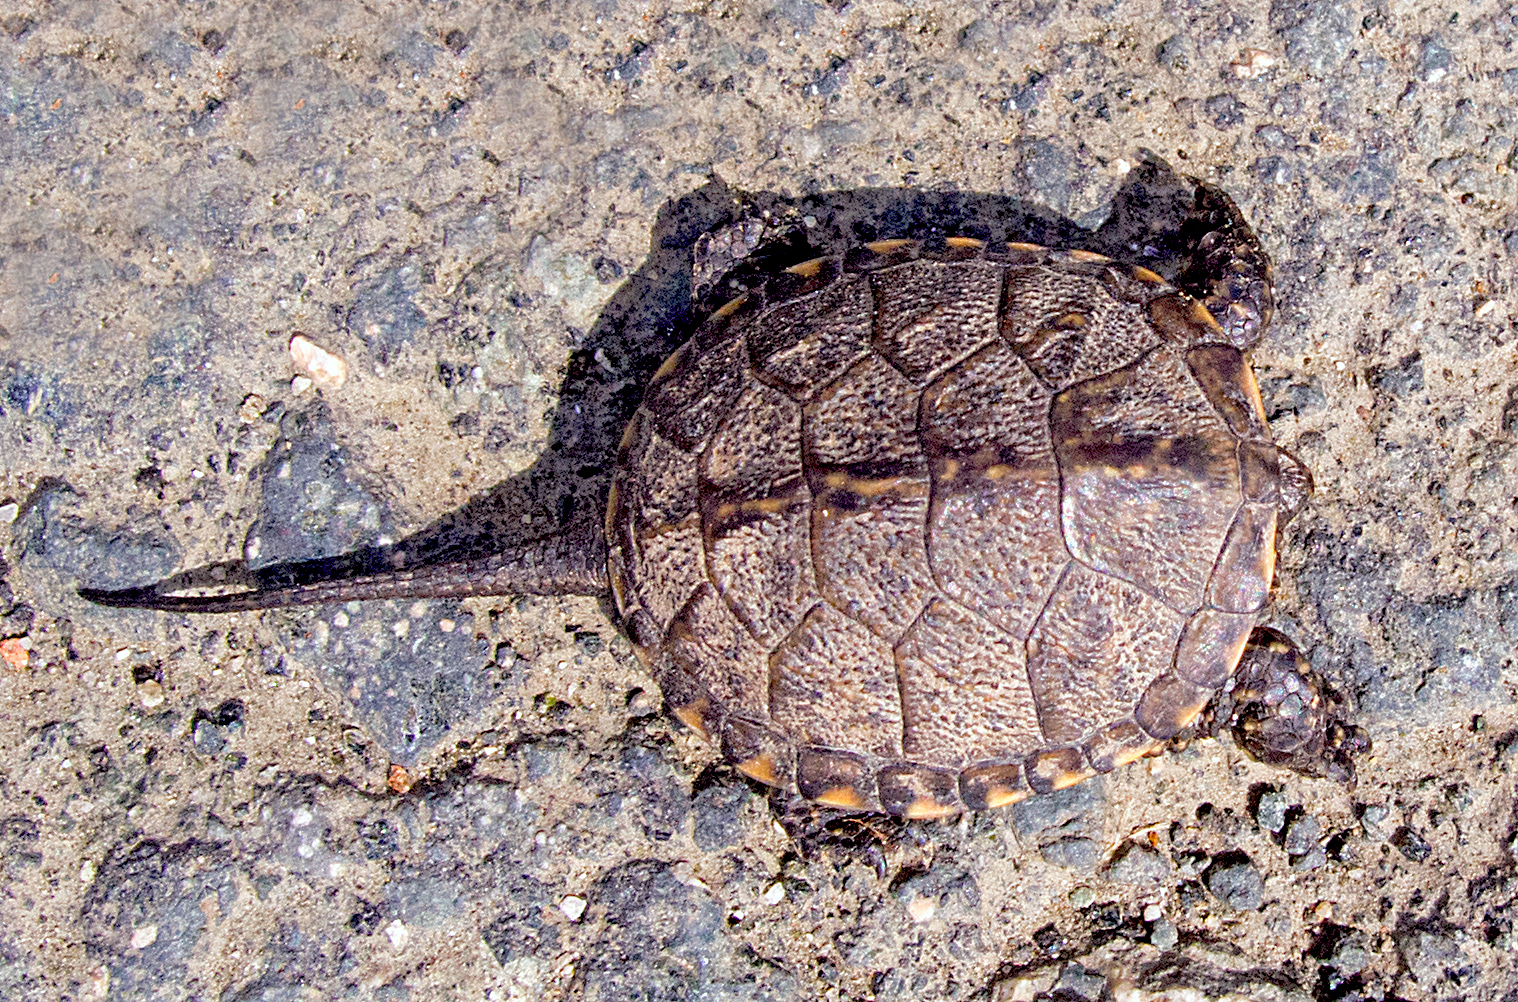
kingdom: Animalia
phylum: Chordata
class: Testudines
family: Emydidae
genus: Emys
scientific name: Emys orbicularis
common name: European pond turtle
